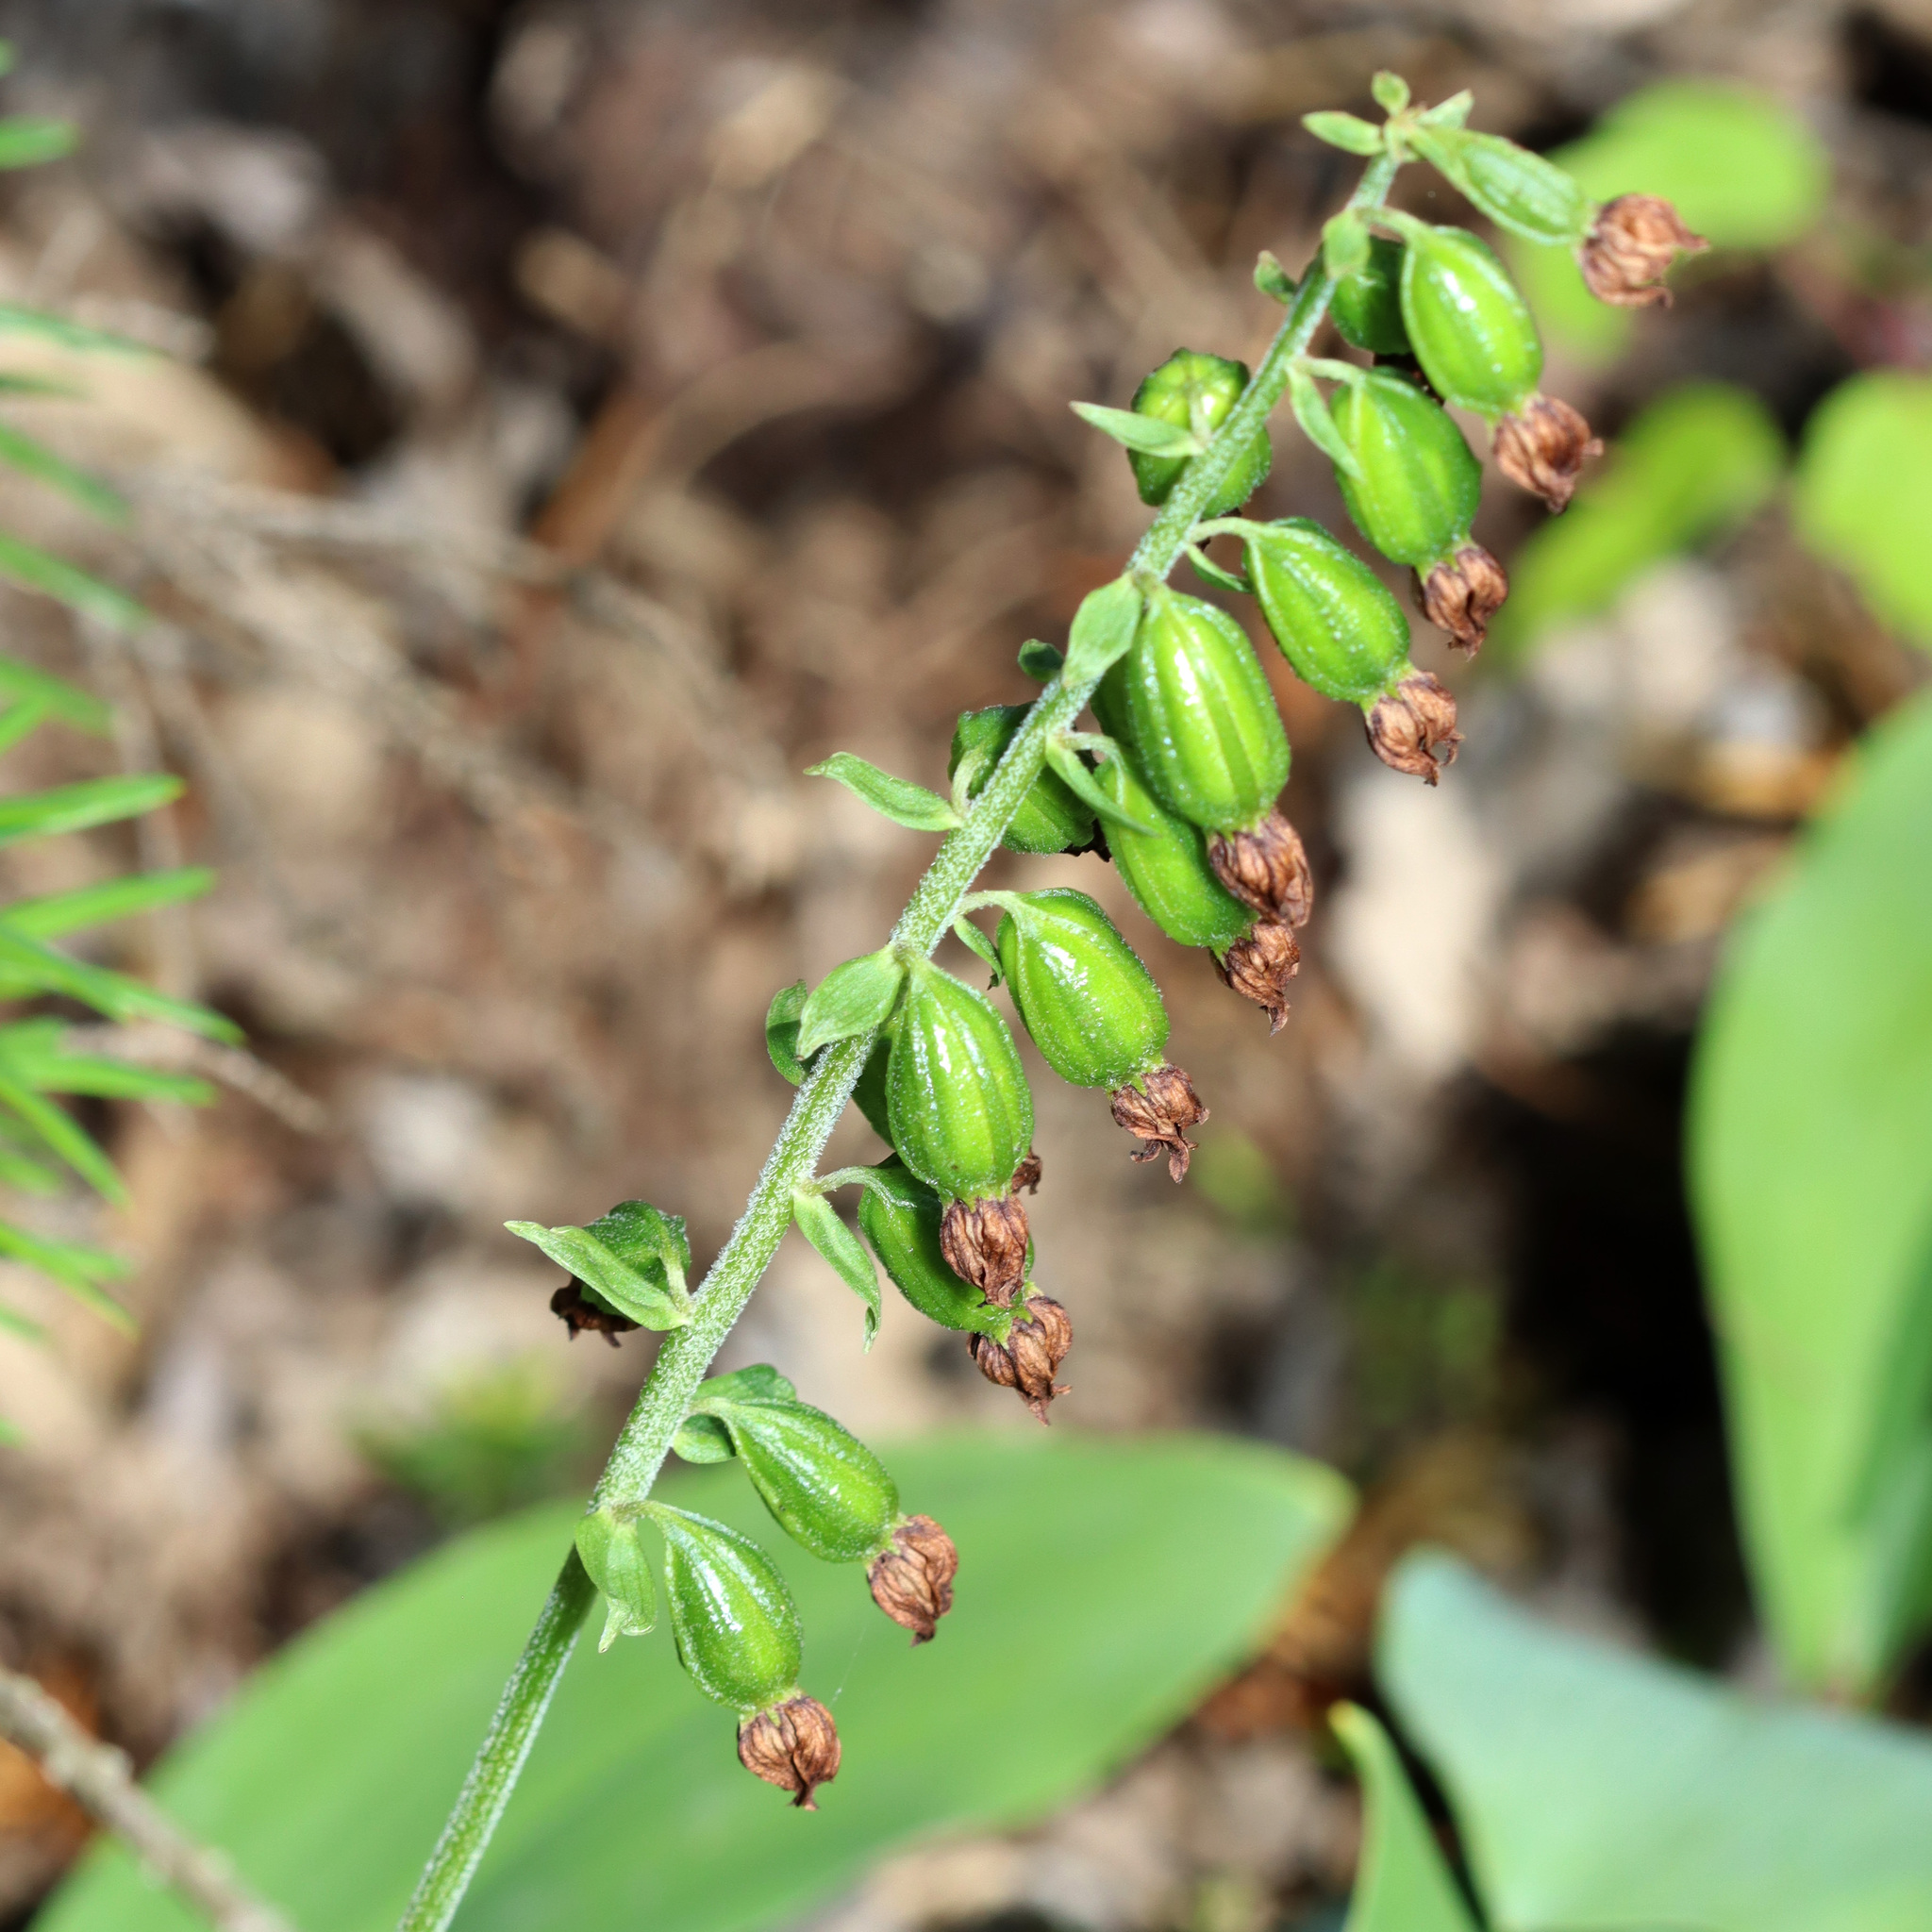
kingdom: Plantae
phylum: Tracheophyta
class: Liliopsida
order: Asparagales
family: Orchidaceae
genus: Epipactis
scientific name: Epipactis helleborine
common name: Broad-leaved helleborine
